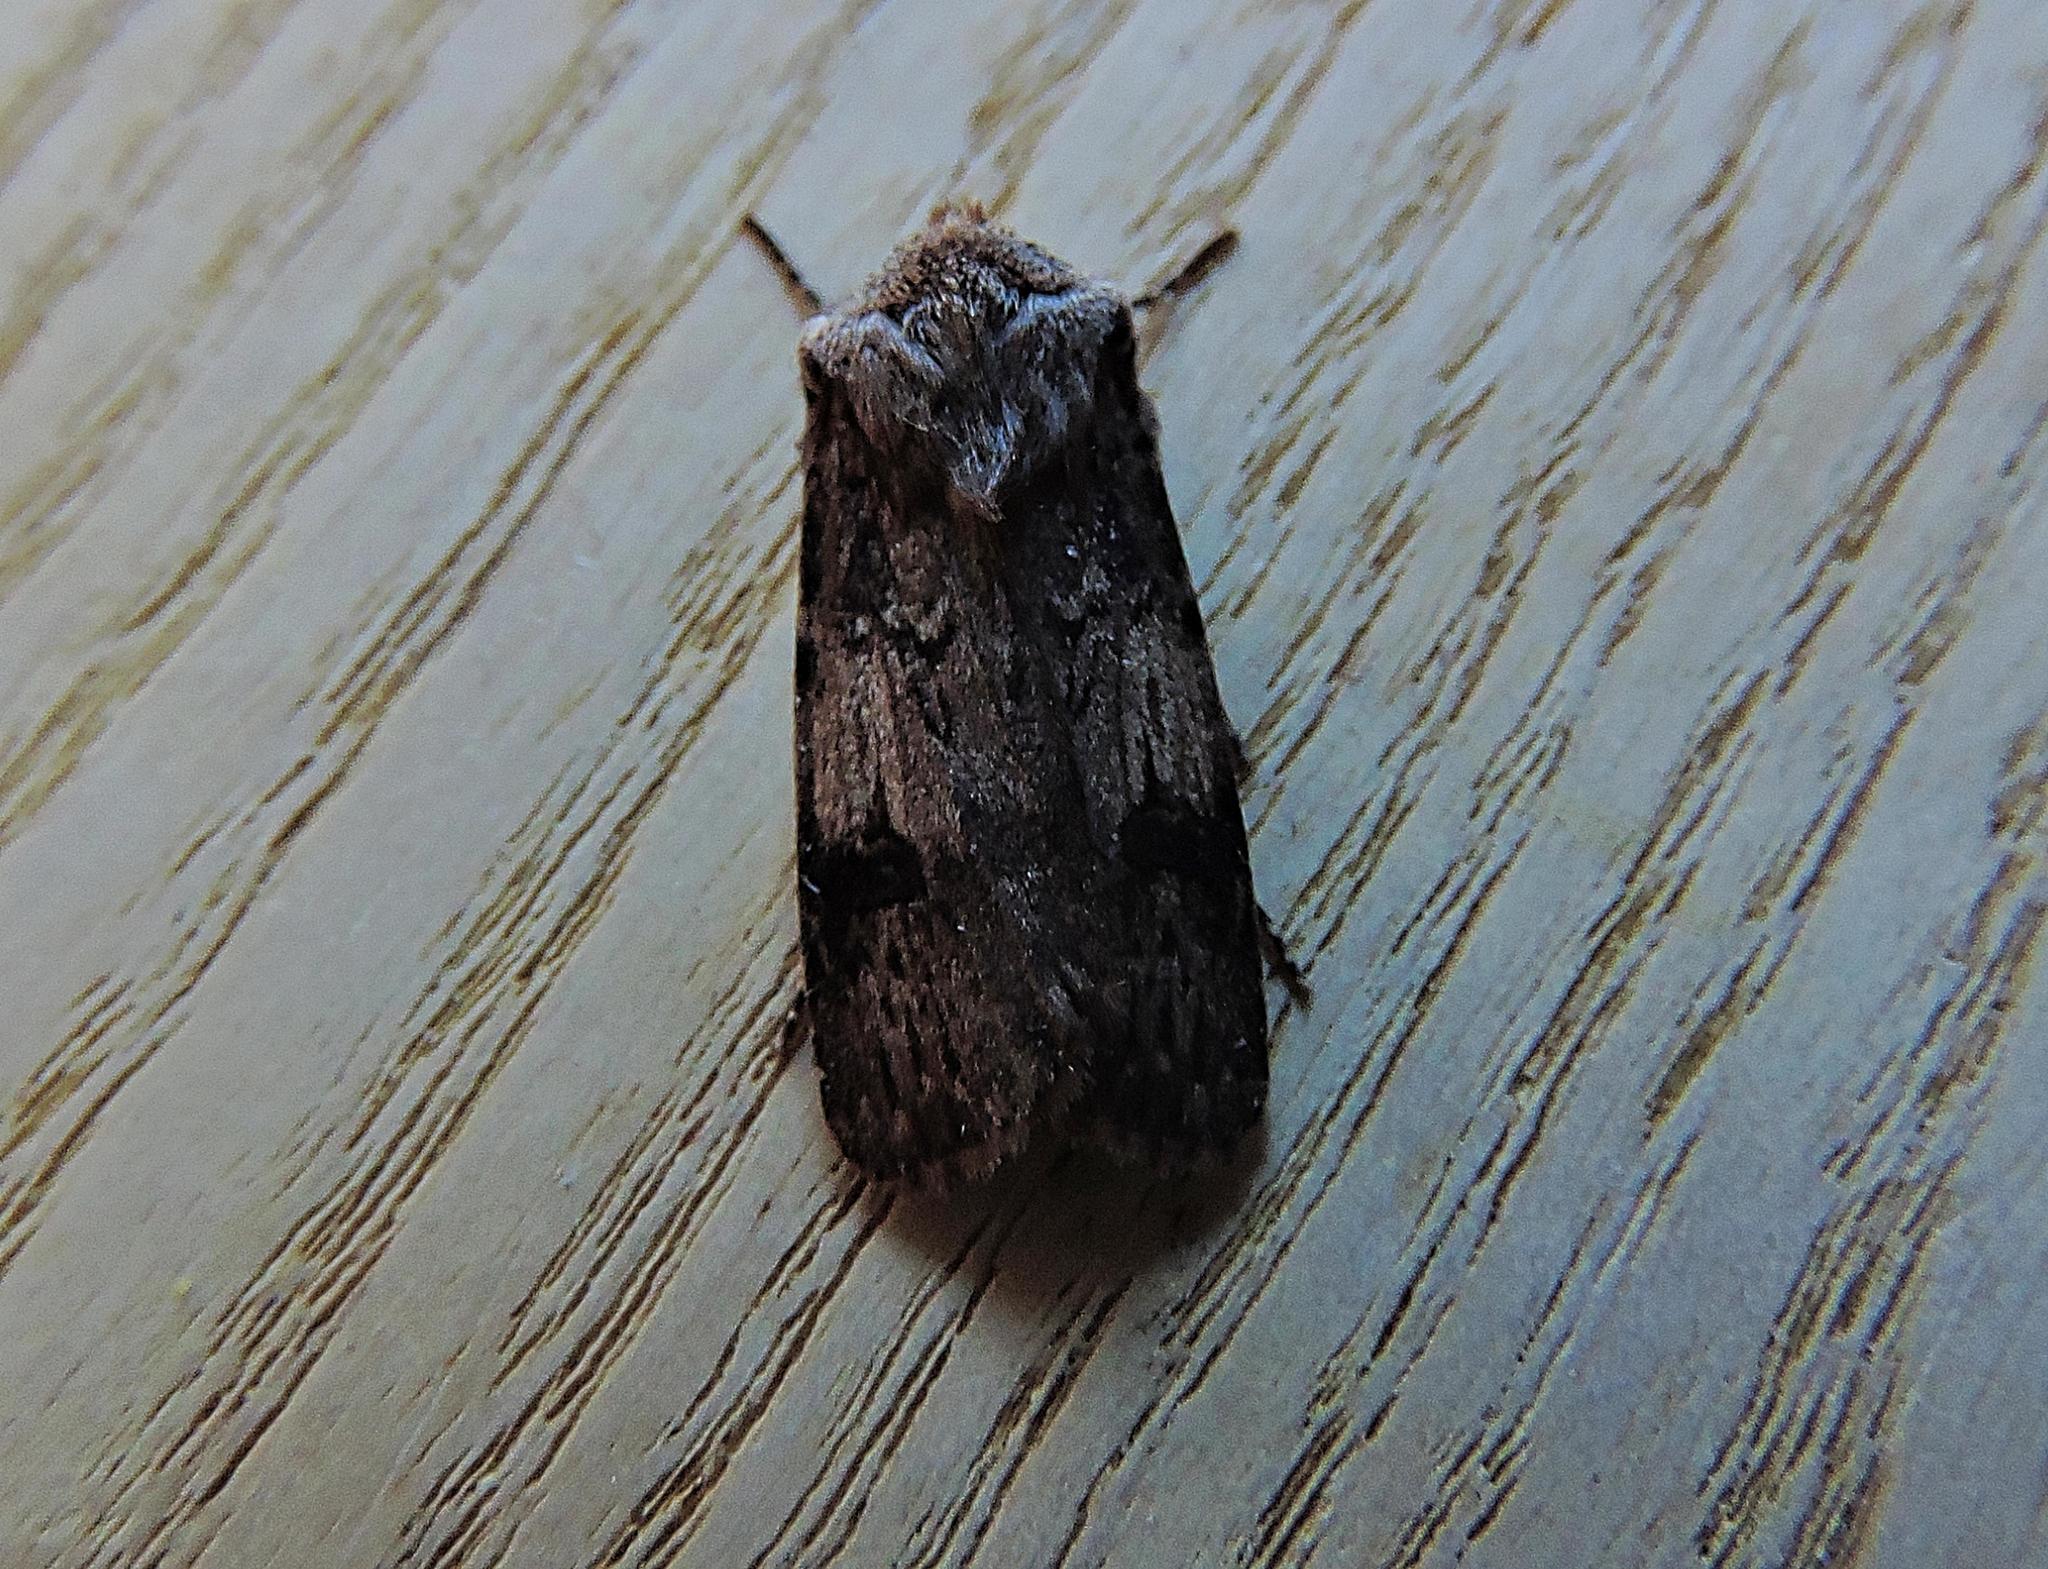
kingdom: Animalia
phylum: Arthropoda
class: Insecta
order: Lepidoptera
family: Noctuidae
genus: Agrotis
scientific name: Agrotis puta
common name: Shuttle-shaped dart
